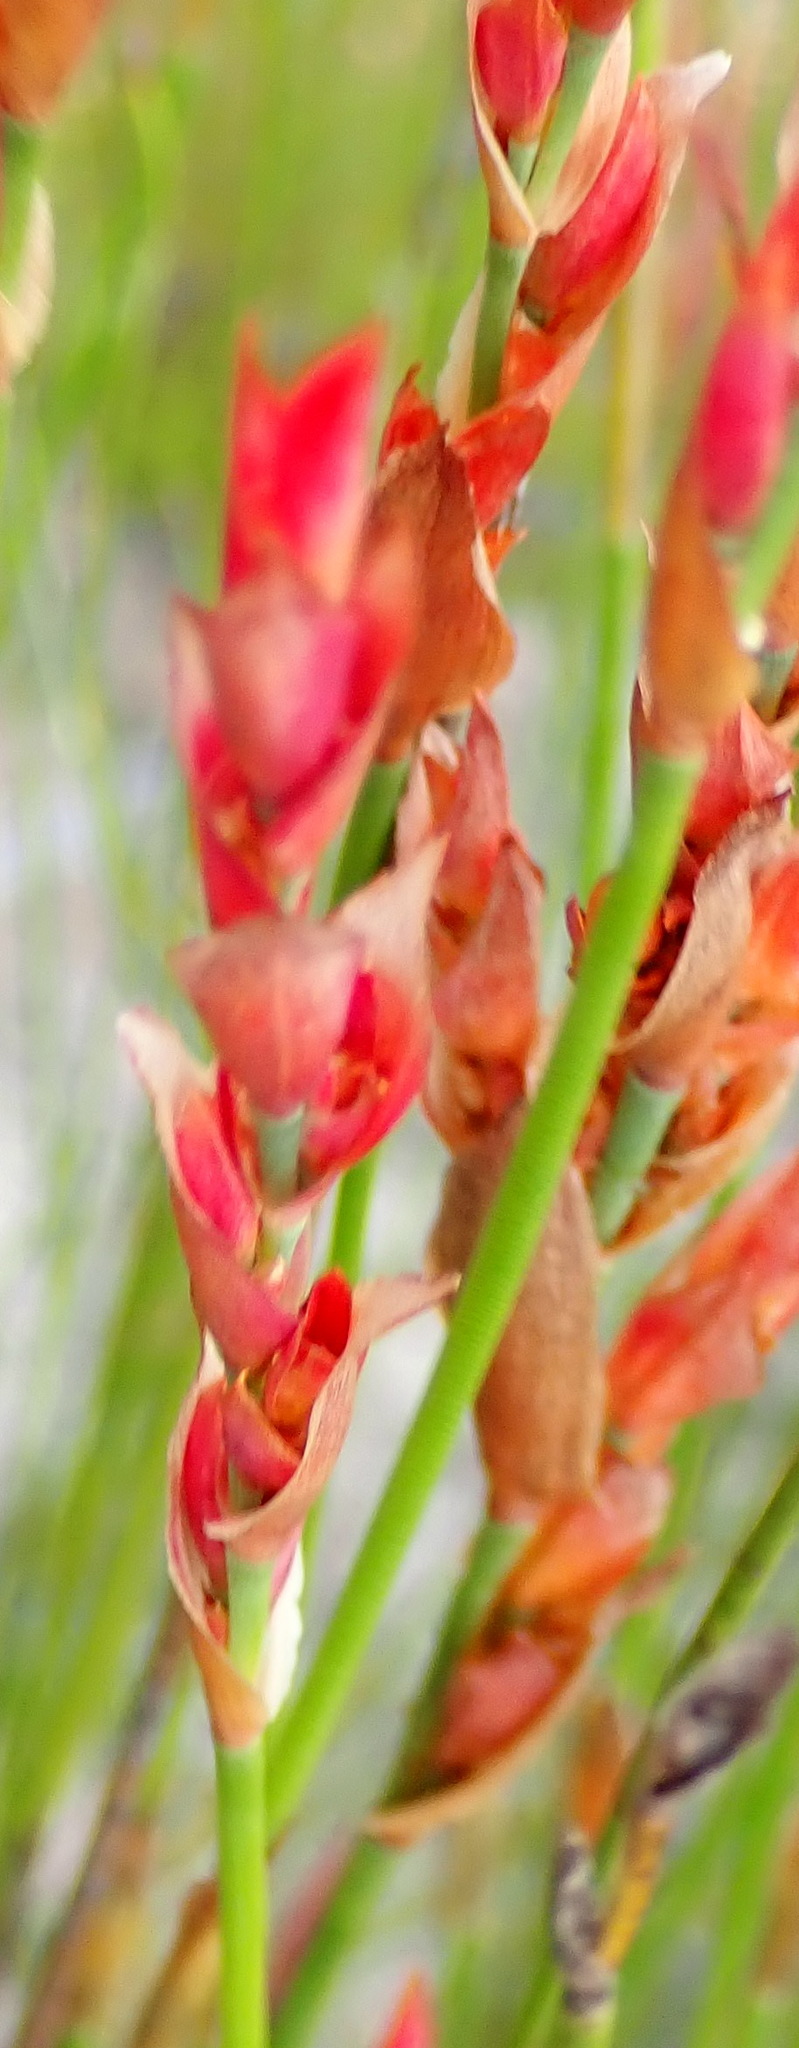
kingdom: Plantae
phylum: Tracheophyta
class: Liliopsida
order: Poales
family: Restionaceae
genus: Elegia
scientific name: Elegia stipularis
